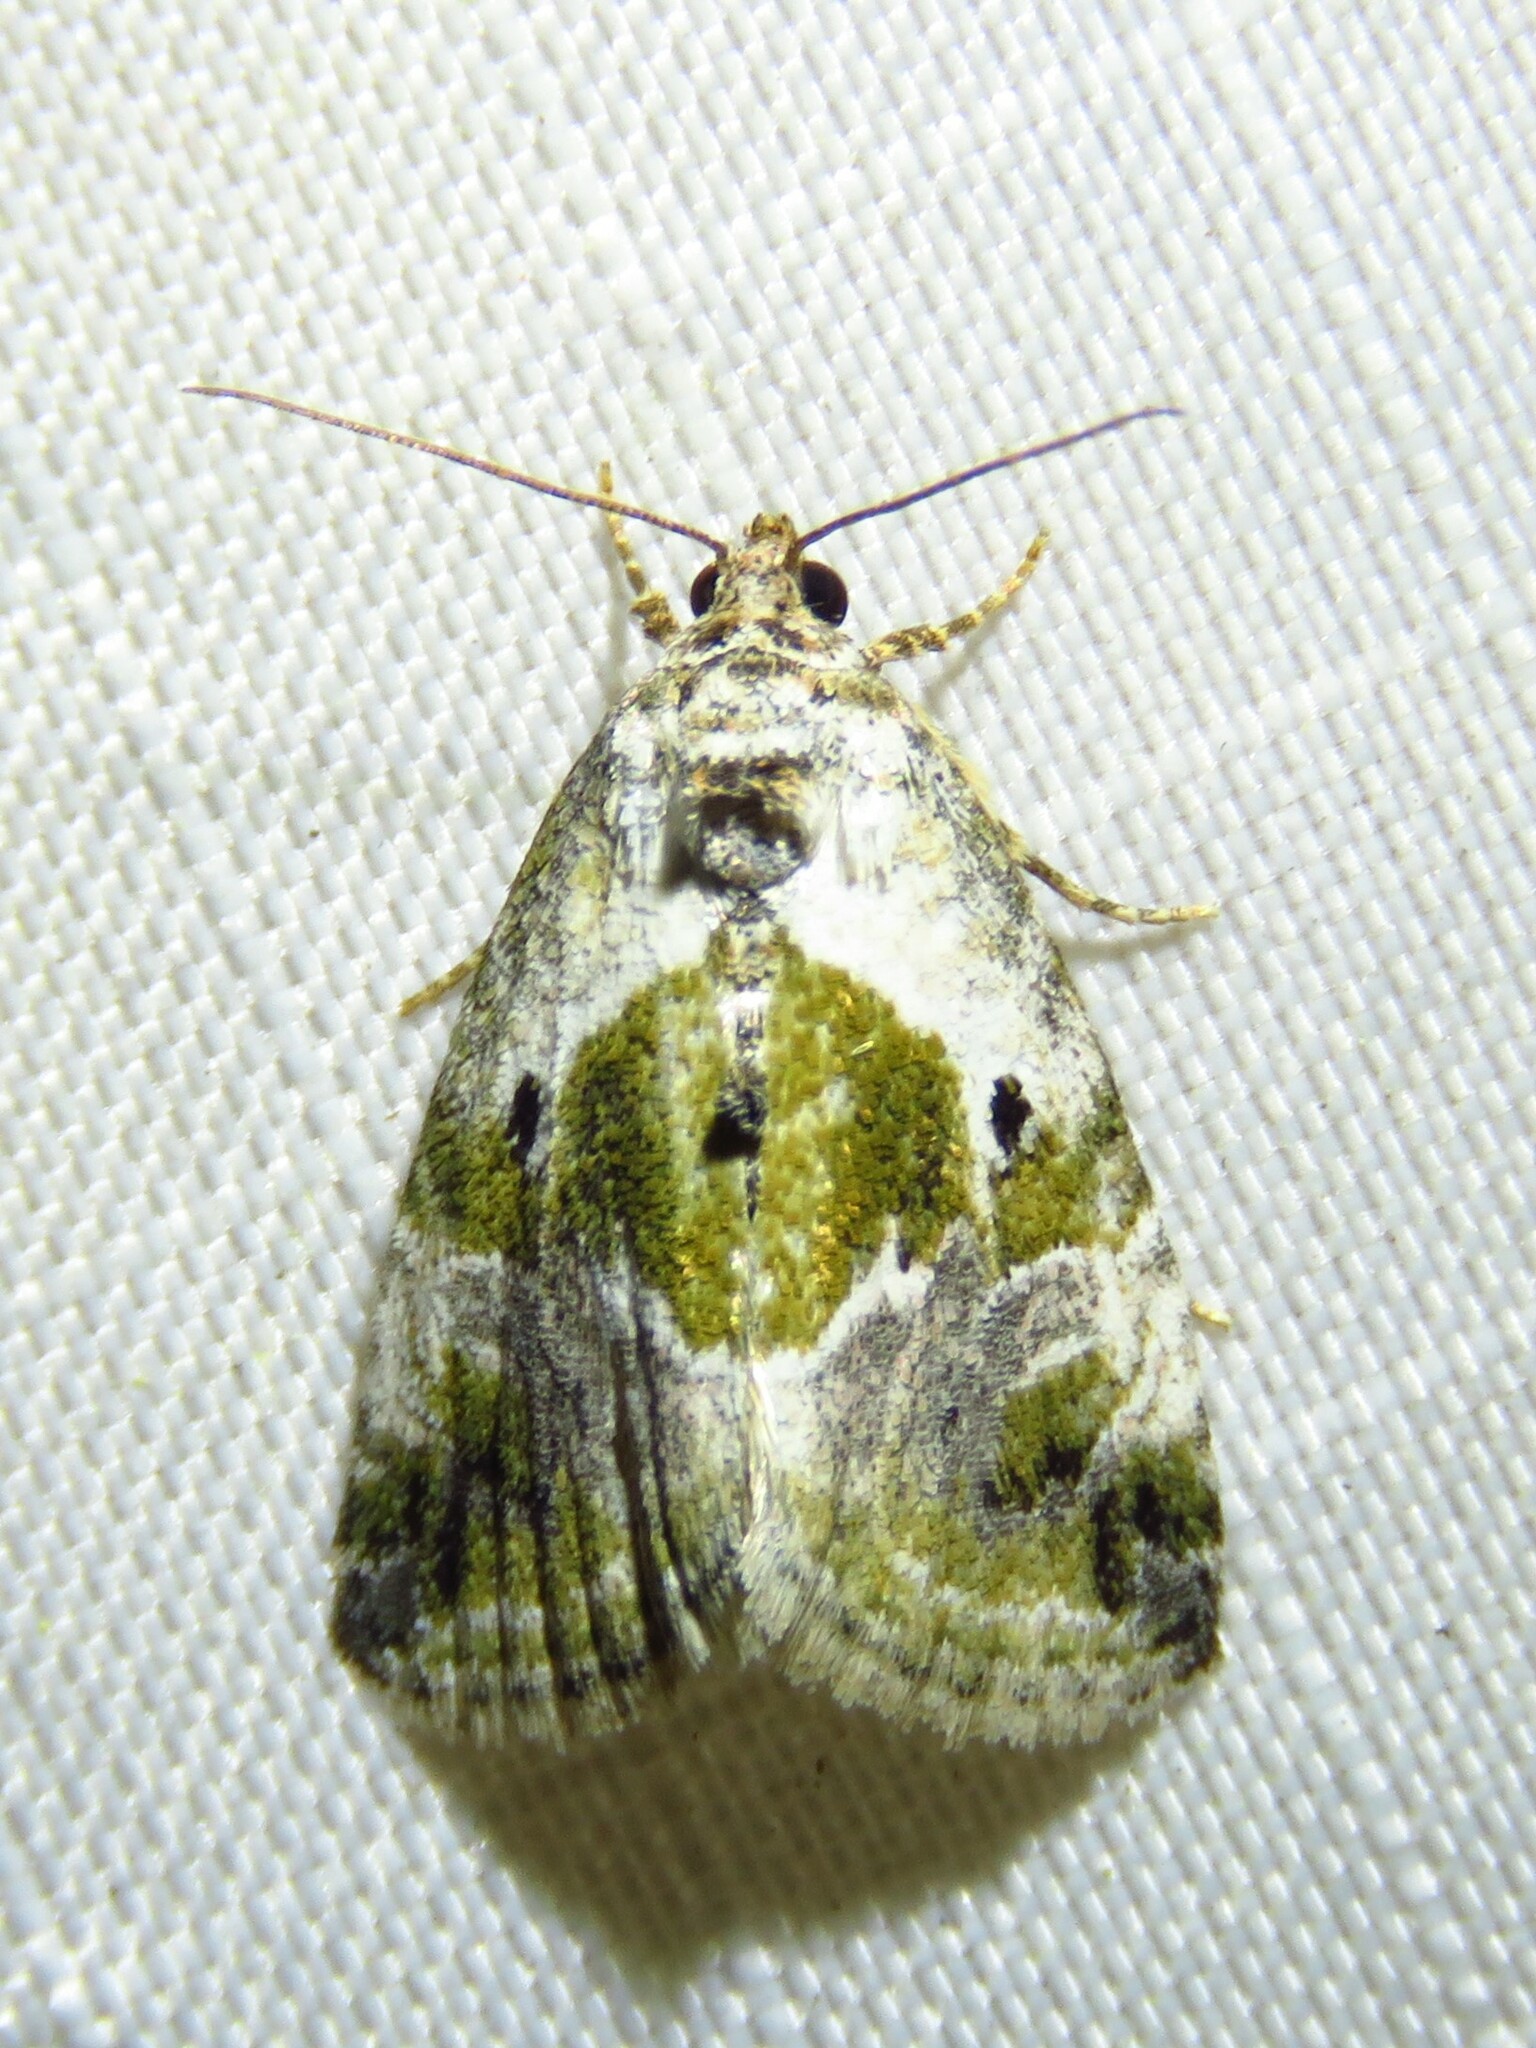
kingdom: Animalia
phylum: Arthropoda
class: Insecta
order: Lepidoptera
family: Noctuidae
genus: Maliattha
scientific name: Maliattha synochitis
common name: Black-dotted glyph
